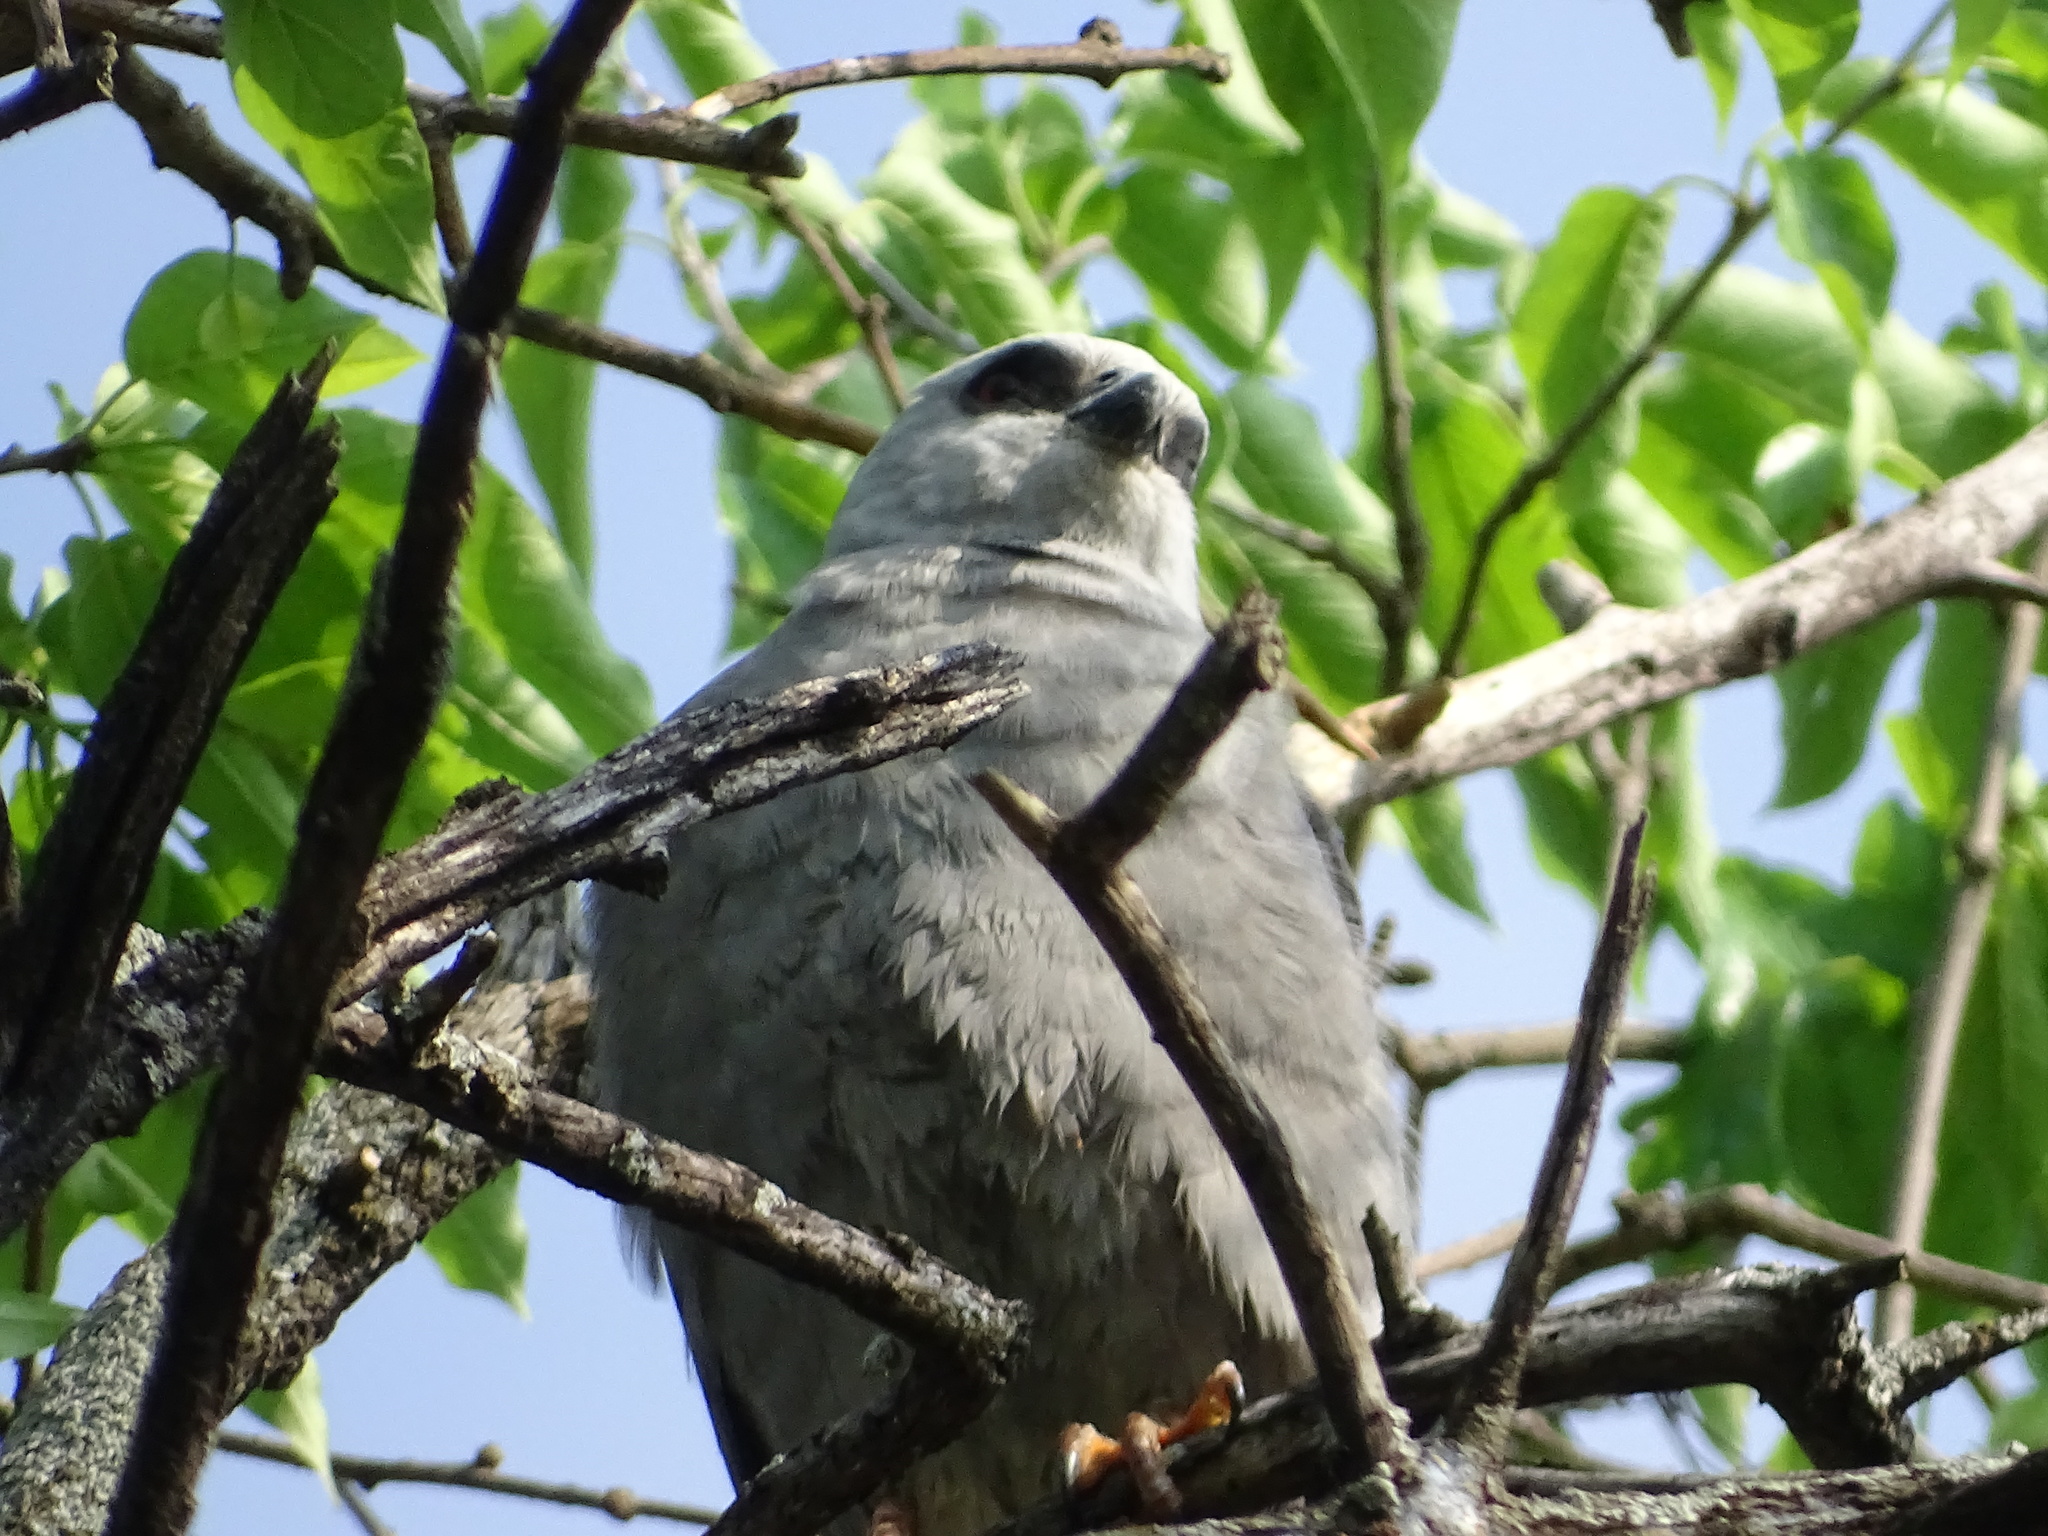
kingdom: Animalia
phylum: Chordata
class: Aves
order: Accipitriformes
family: Accipitridae
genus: Ictinia
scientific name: Ictinia mississippiensis
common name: Mississippi kite
